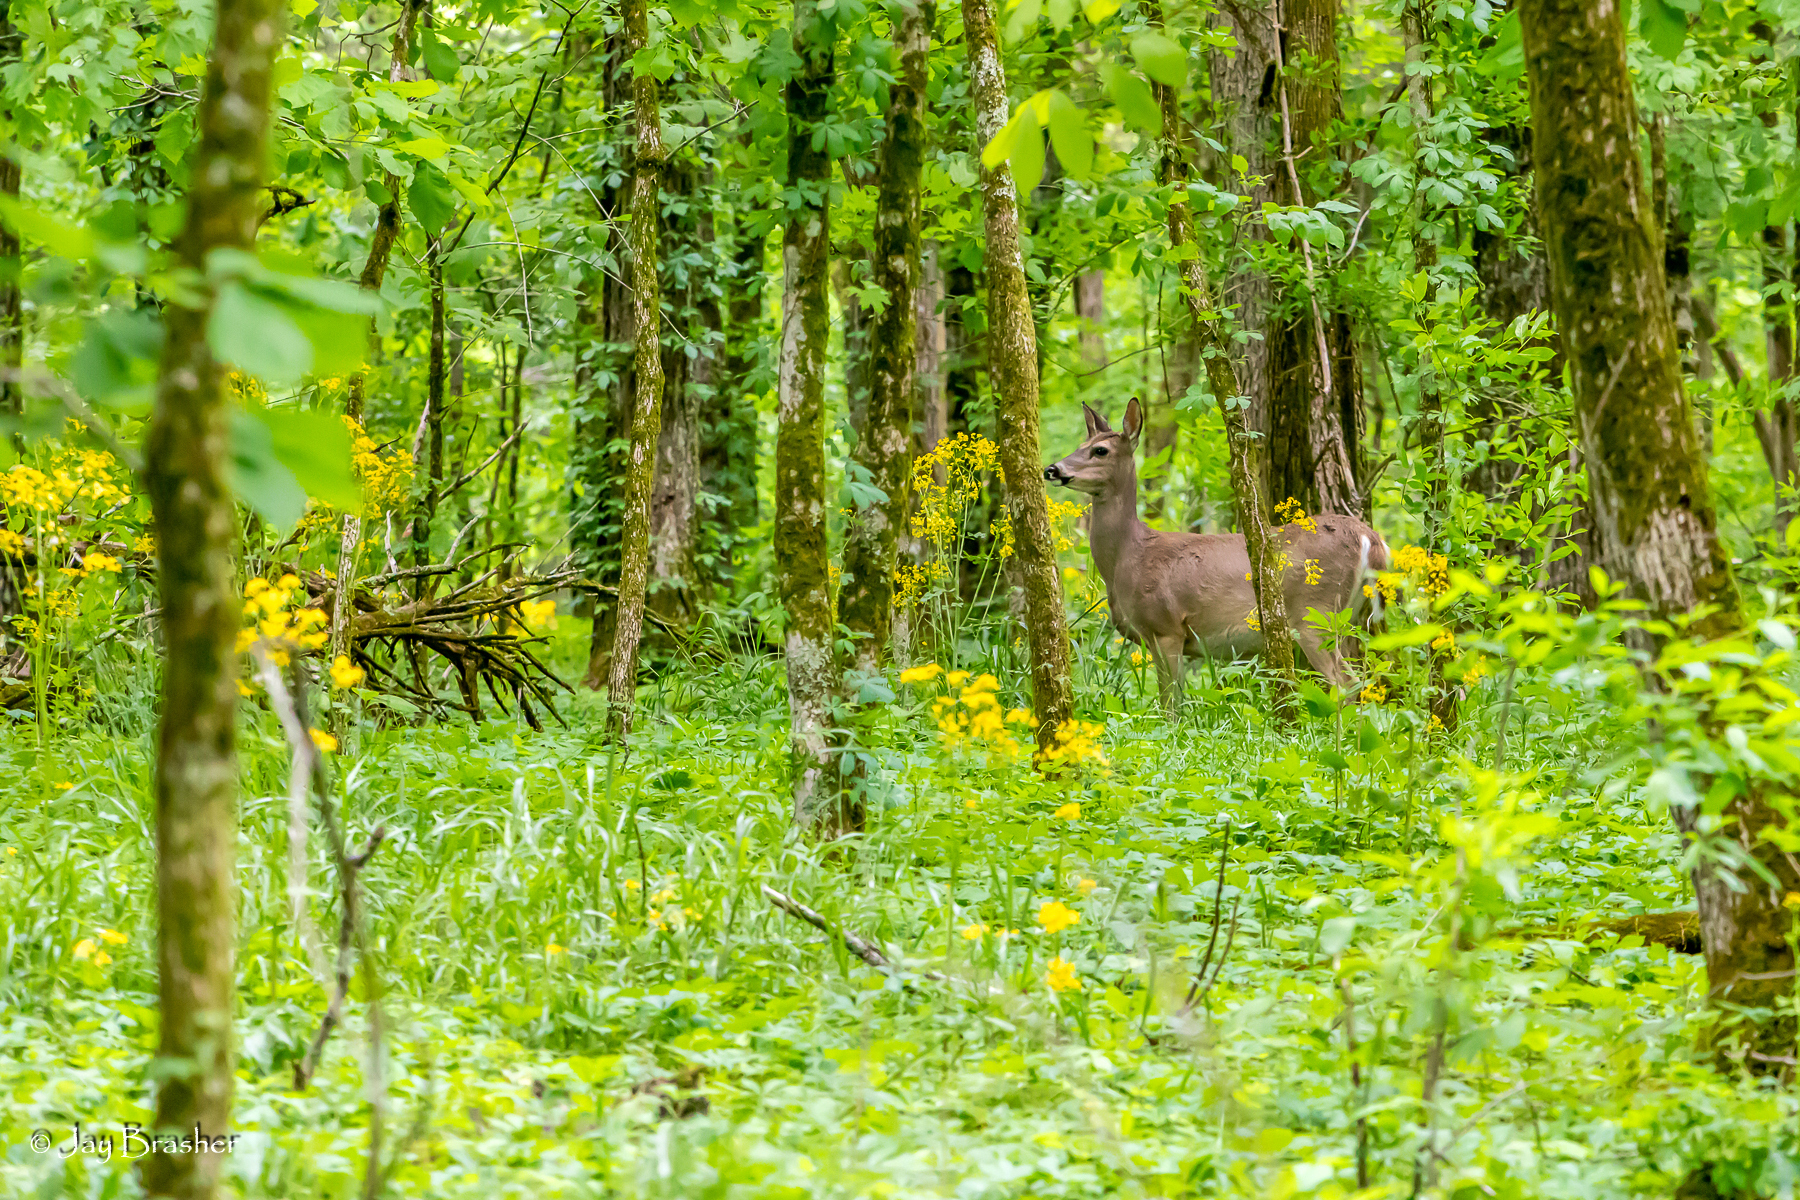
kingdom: Animalia
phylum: Chordata
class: Mammalia
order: Artiodactyla
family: Cervidae
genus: Odocoileus
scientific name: Odocoileus virginianus
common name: White-tailed deer
